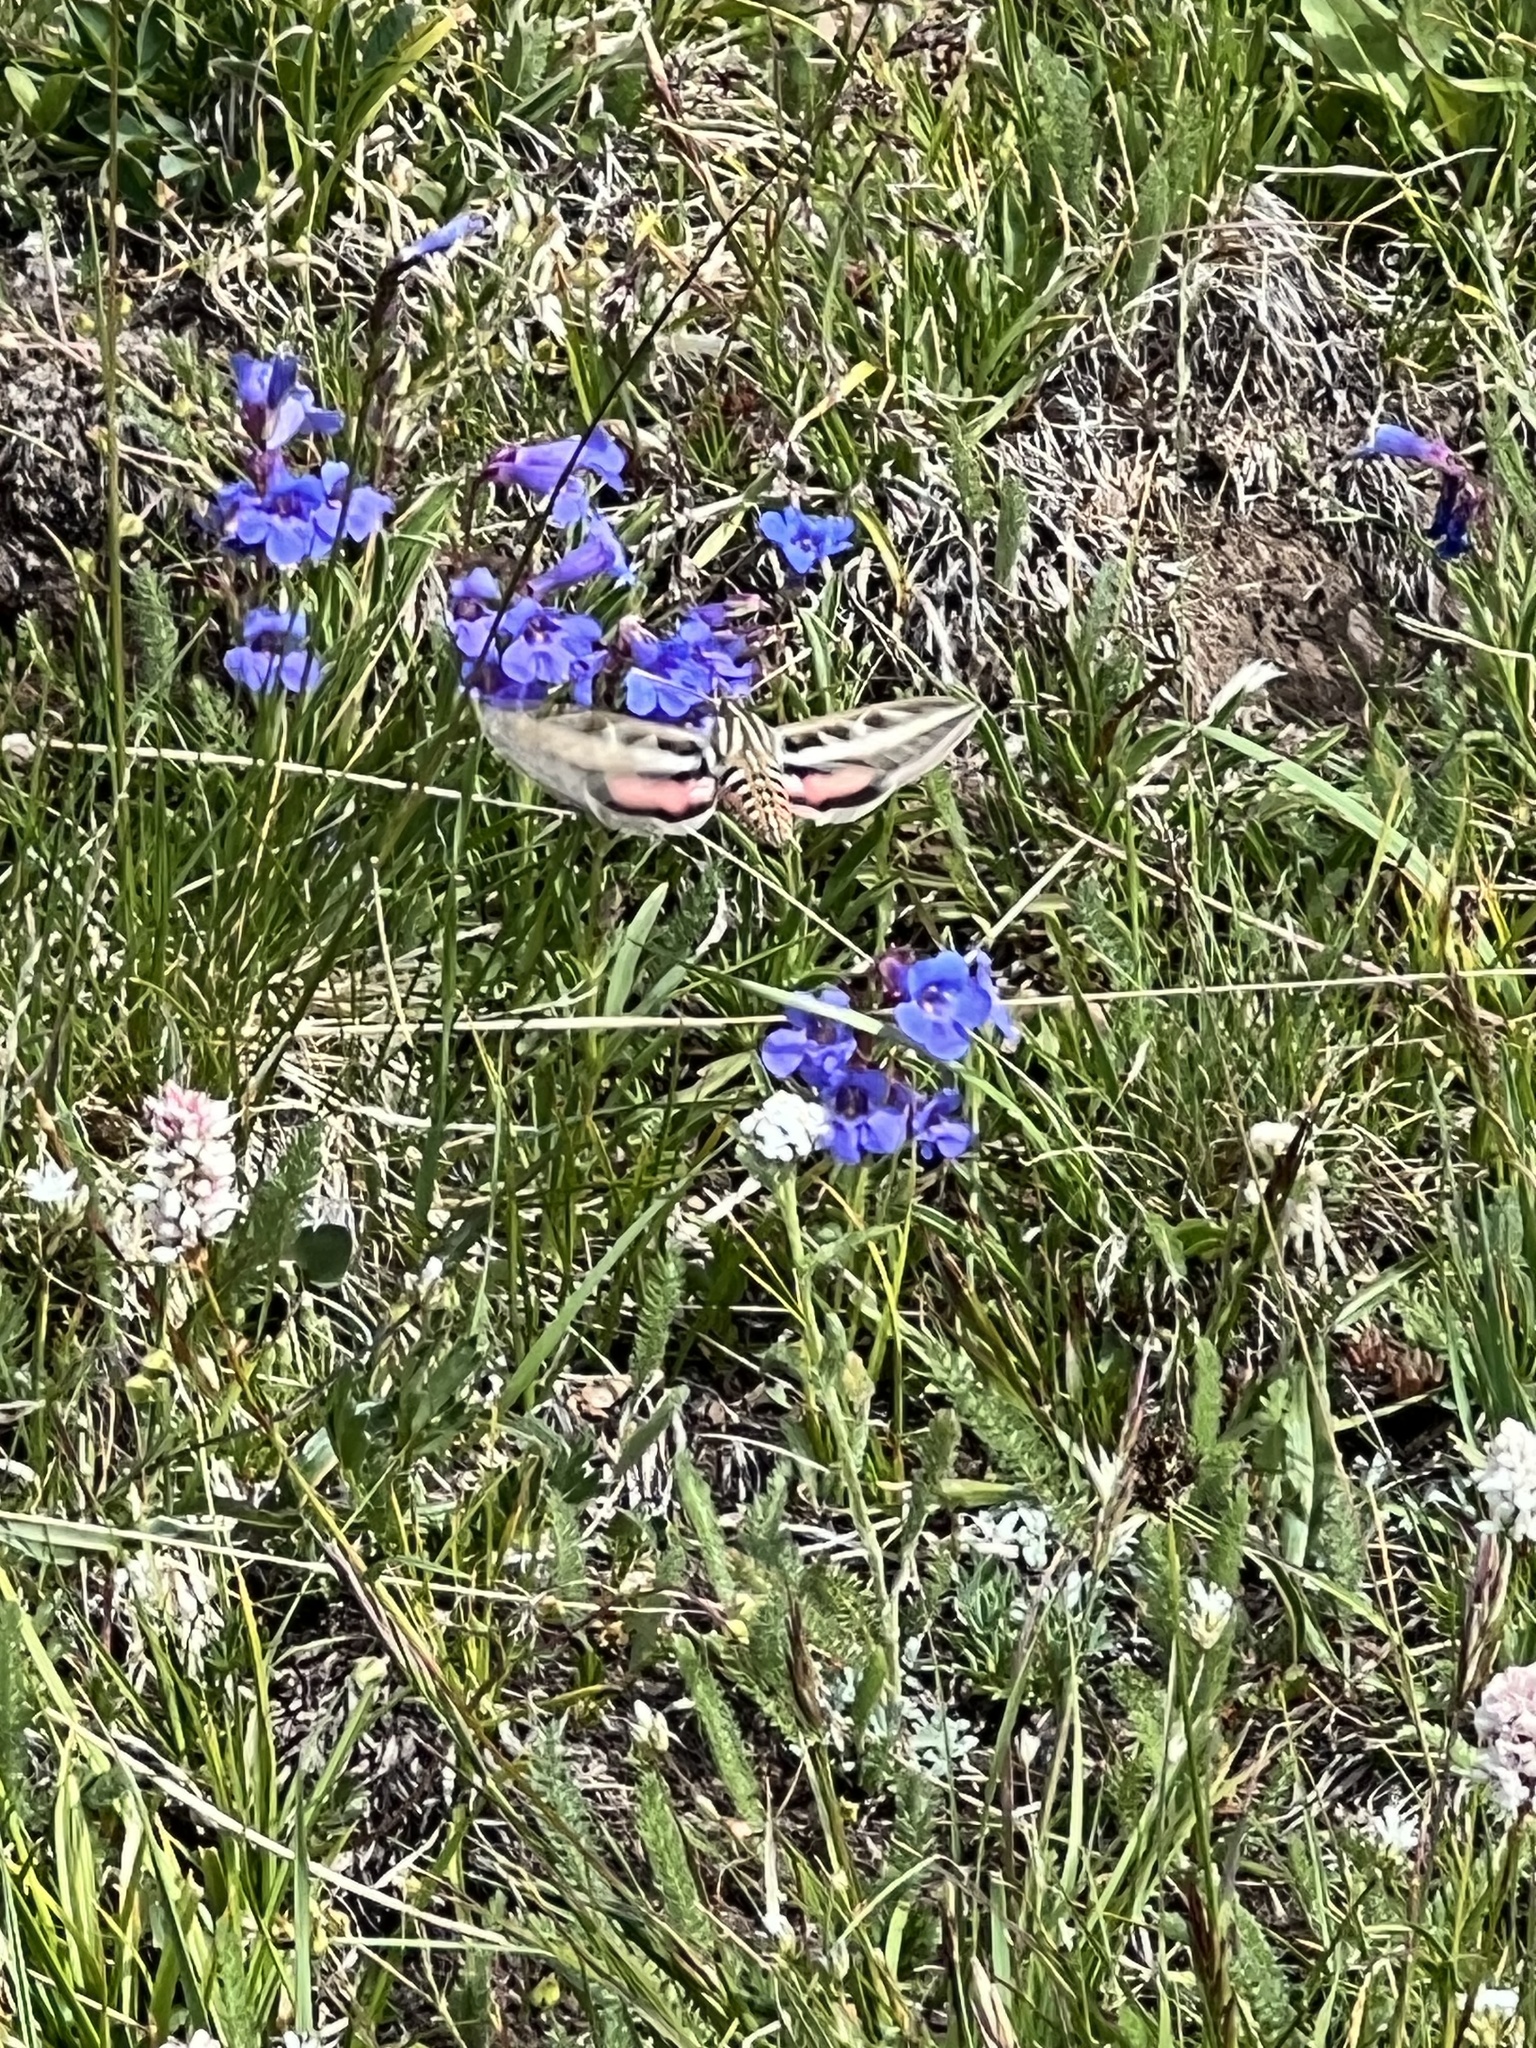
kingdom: Animalia
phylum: Arthropoda
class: Insecta
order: Lepidoptera
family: Sphingidae
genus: Hyles
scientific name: Hyles lineata
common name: White-lined sphinx
